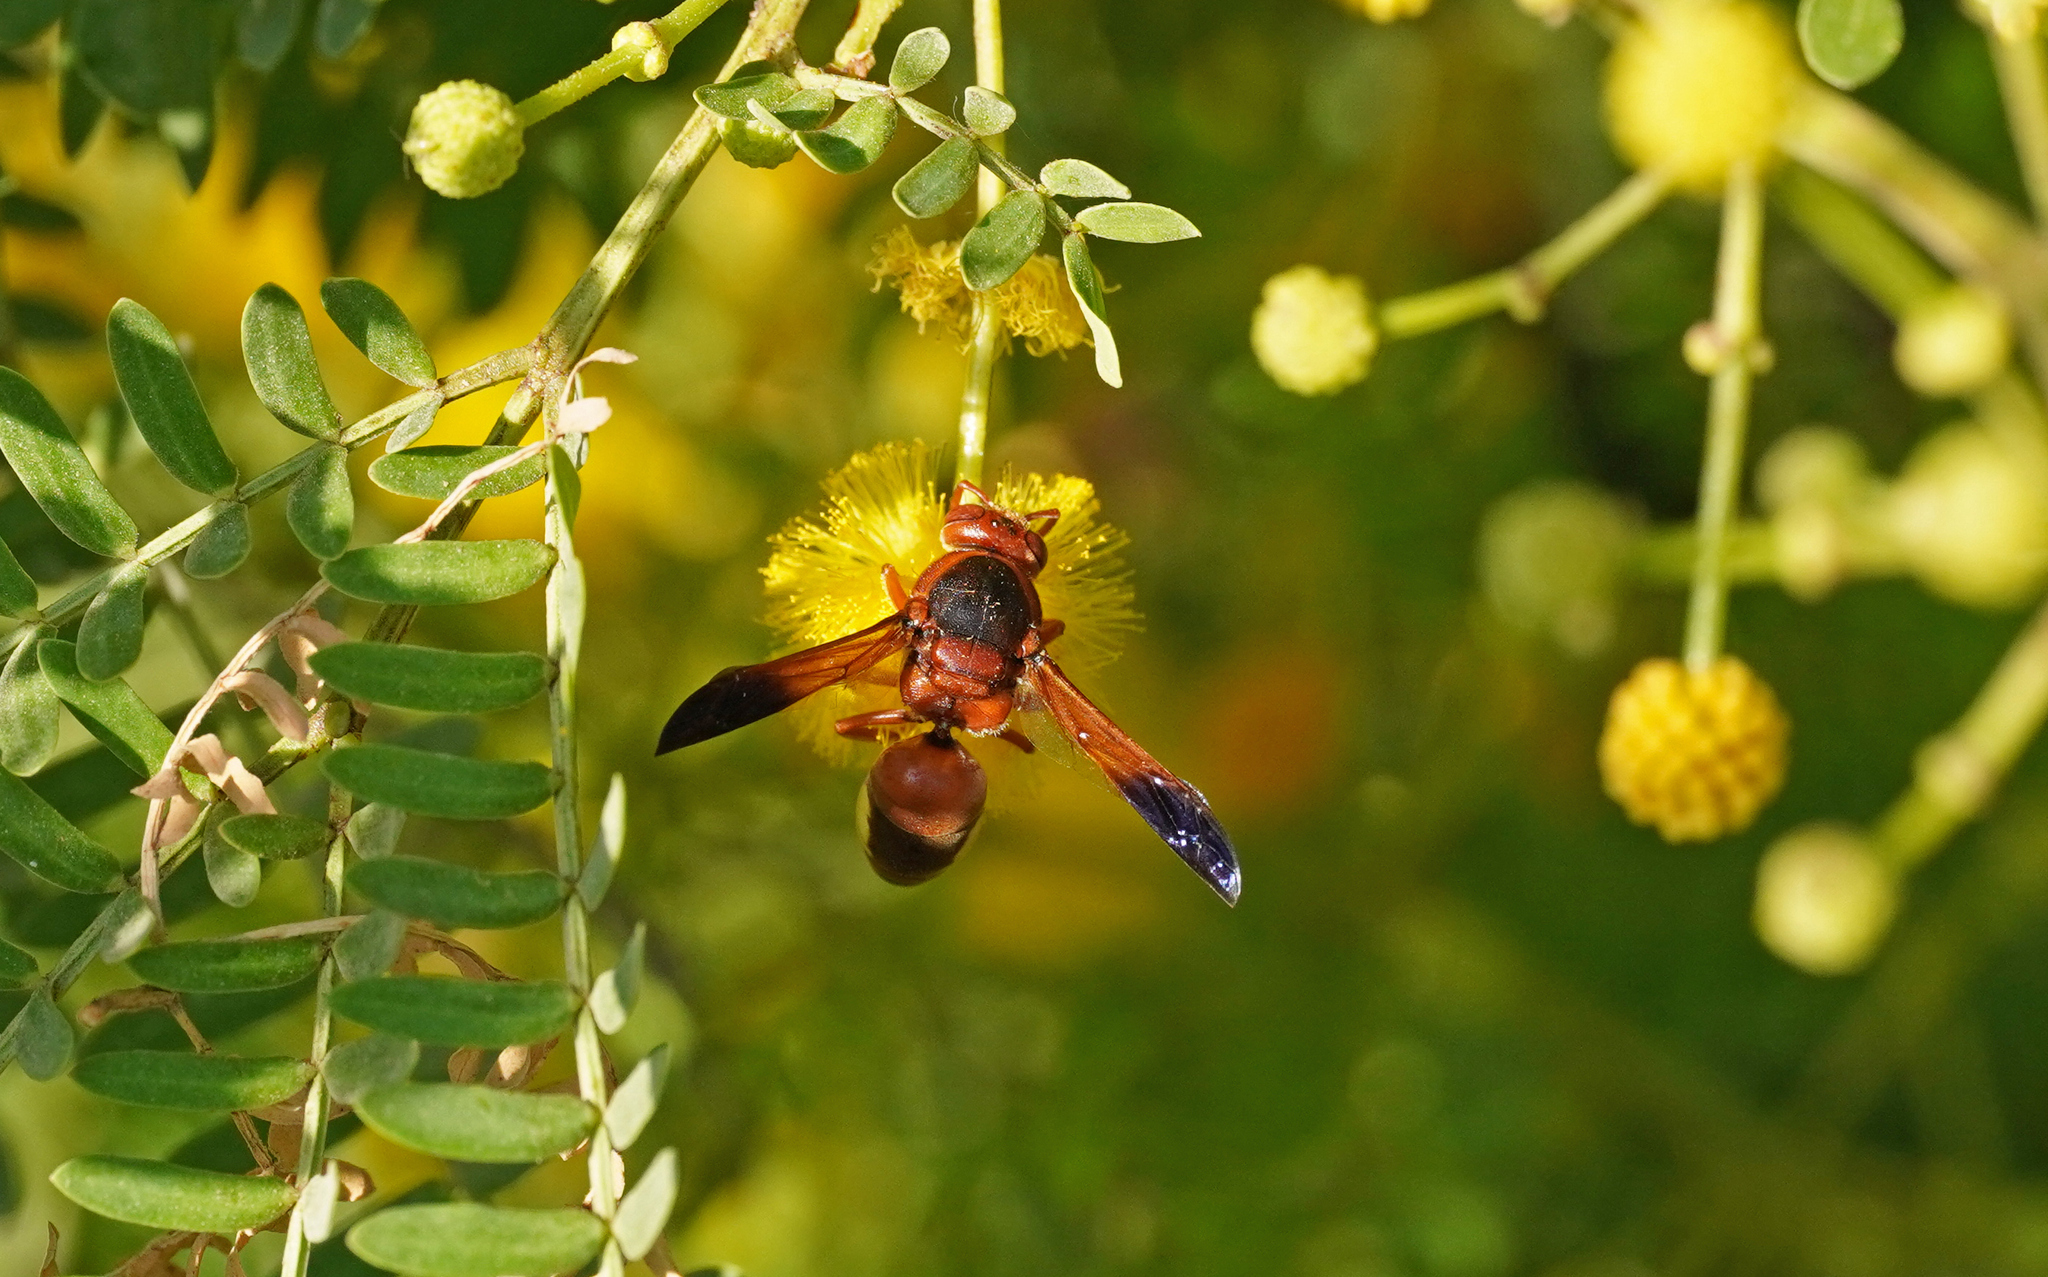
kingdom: Animalia
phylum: Arthropoda
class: Insecta
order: Hymenoptera
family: Eumenidae
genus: Rhynchium
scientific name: Rhynchium oculatum
